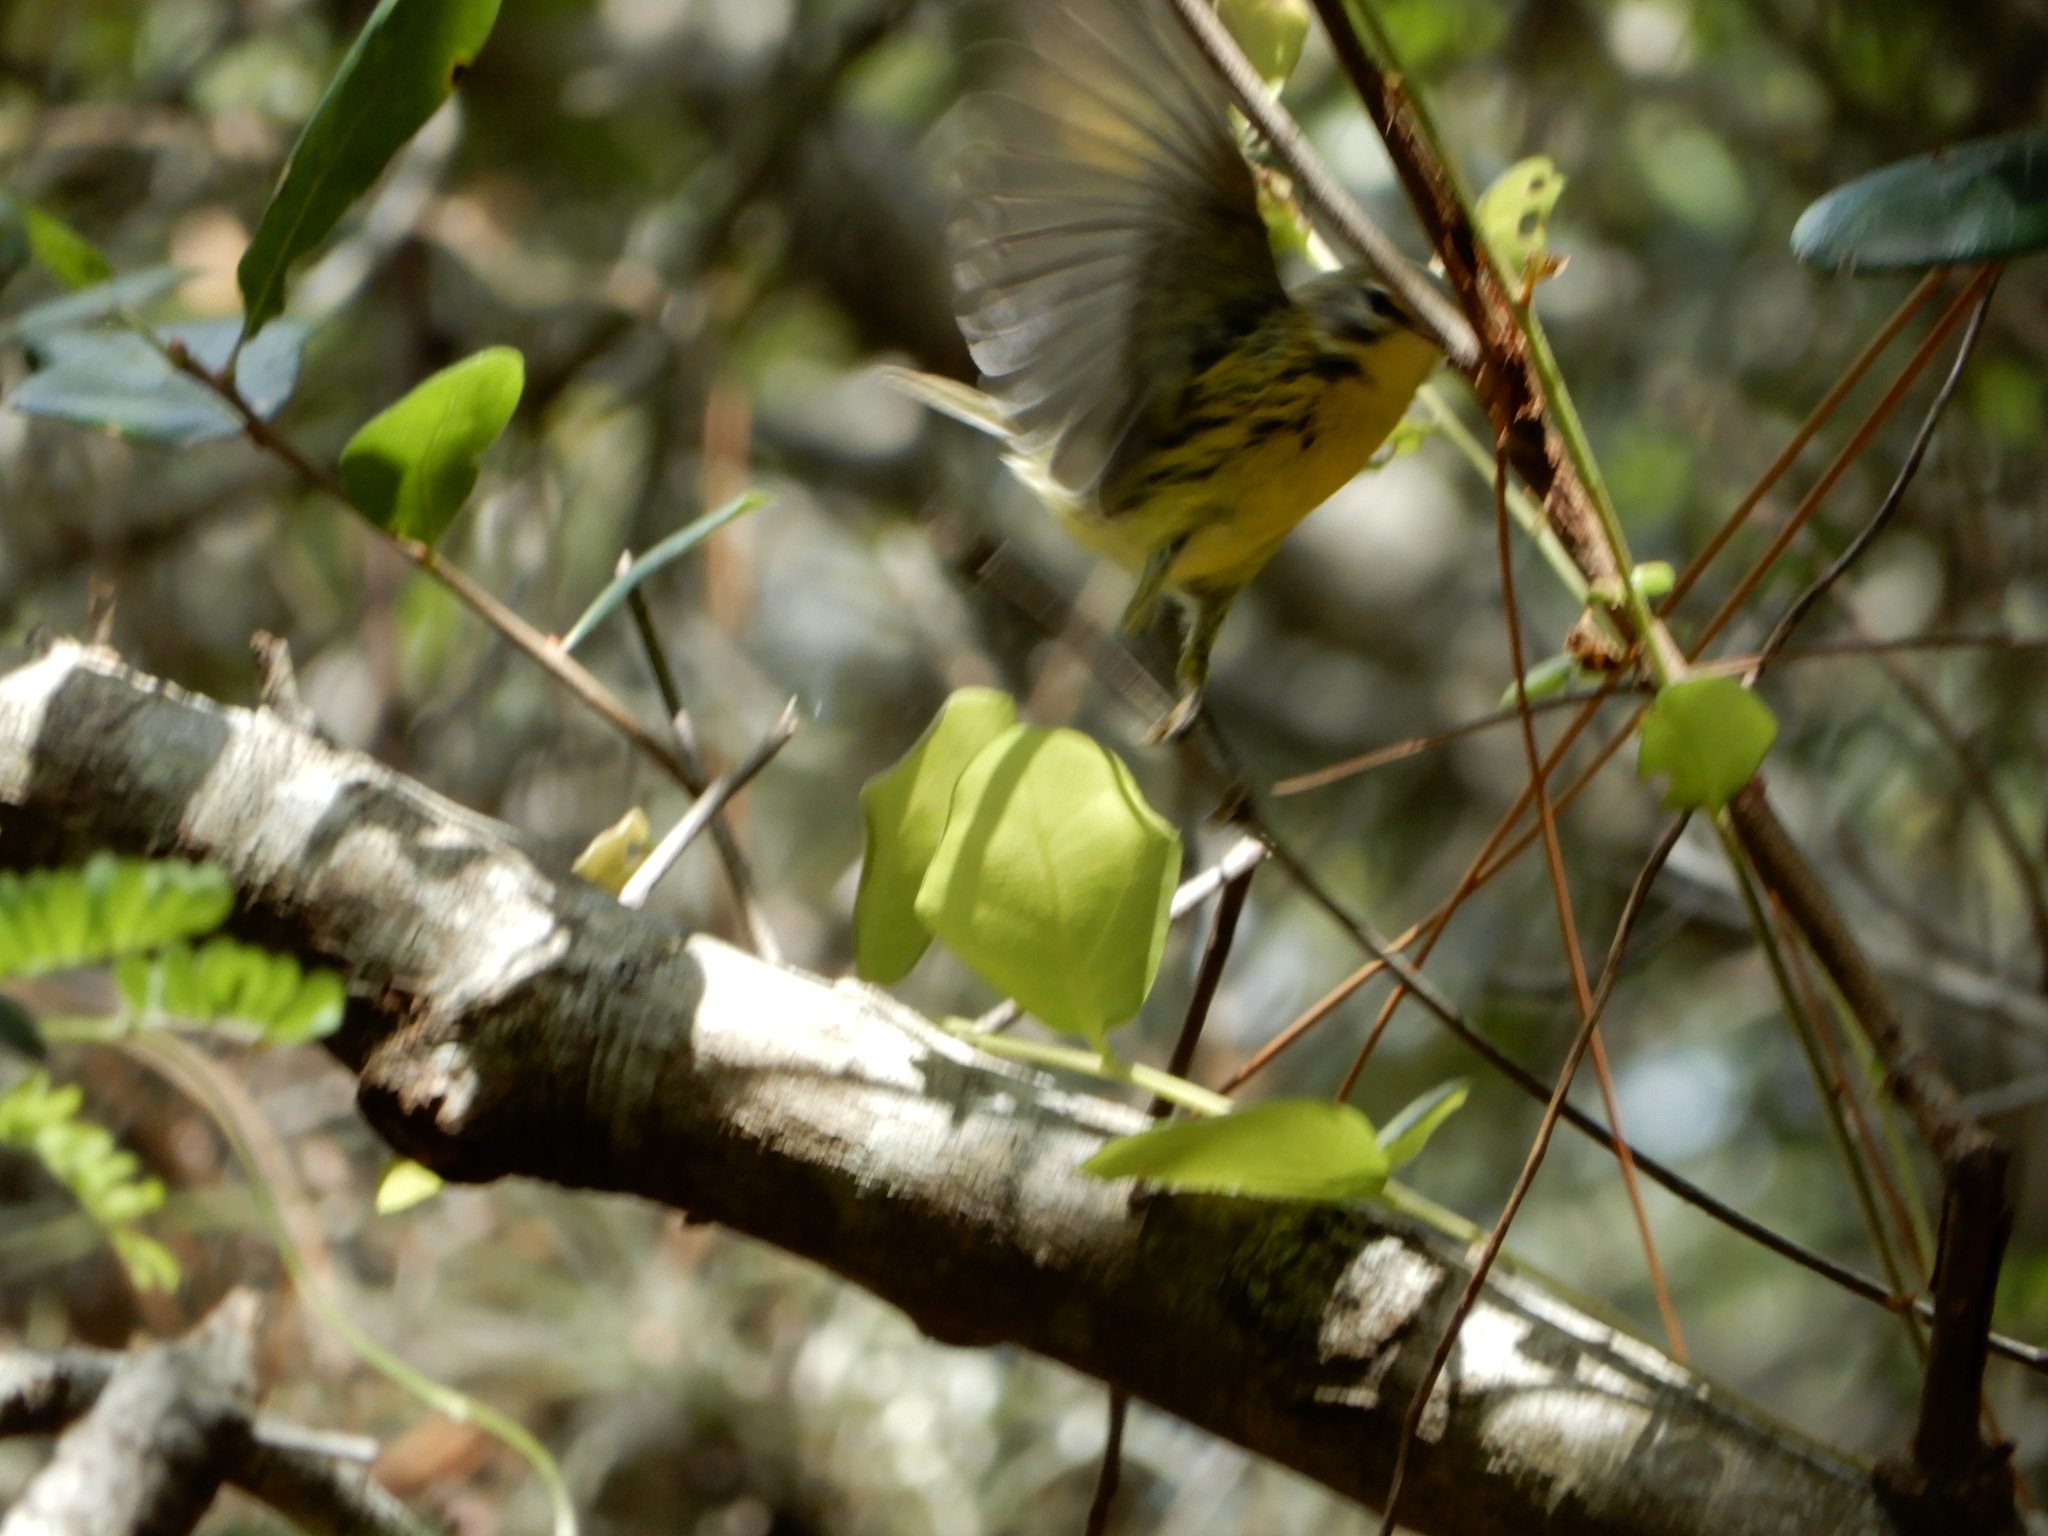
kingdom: Animalia
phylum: Chordata
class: Aves
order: Passeriformes
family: Parulidae
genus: Setophaga
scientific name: Setophaga discolor
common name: Prairie warbler
